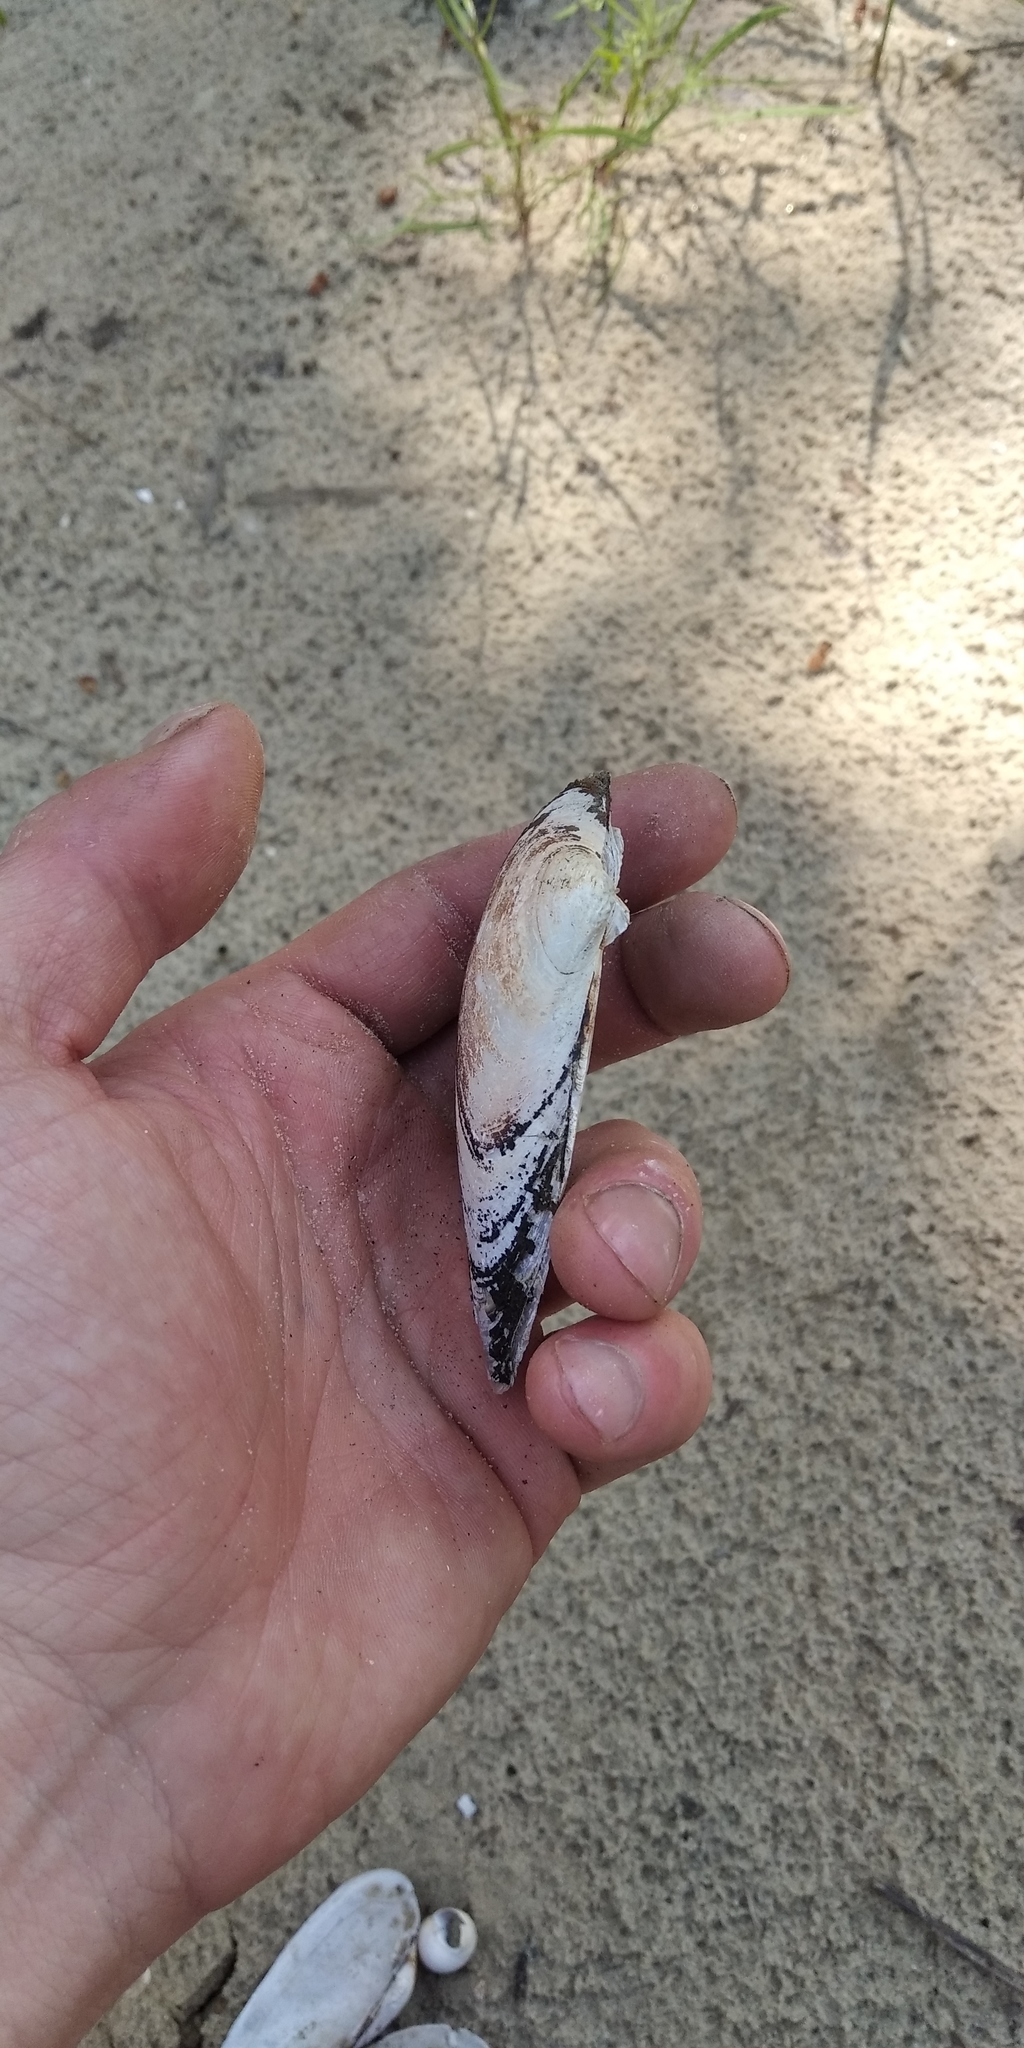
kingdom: Animalia
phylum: Mollusca
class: Bivalvia
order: Unionida
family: Unionidae
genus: Unio
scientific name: Unio tumidus
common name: Swollen river mussel
